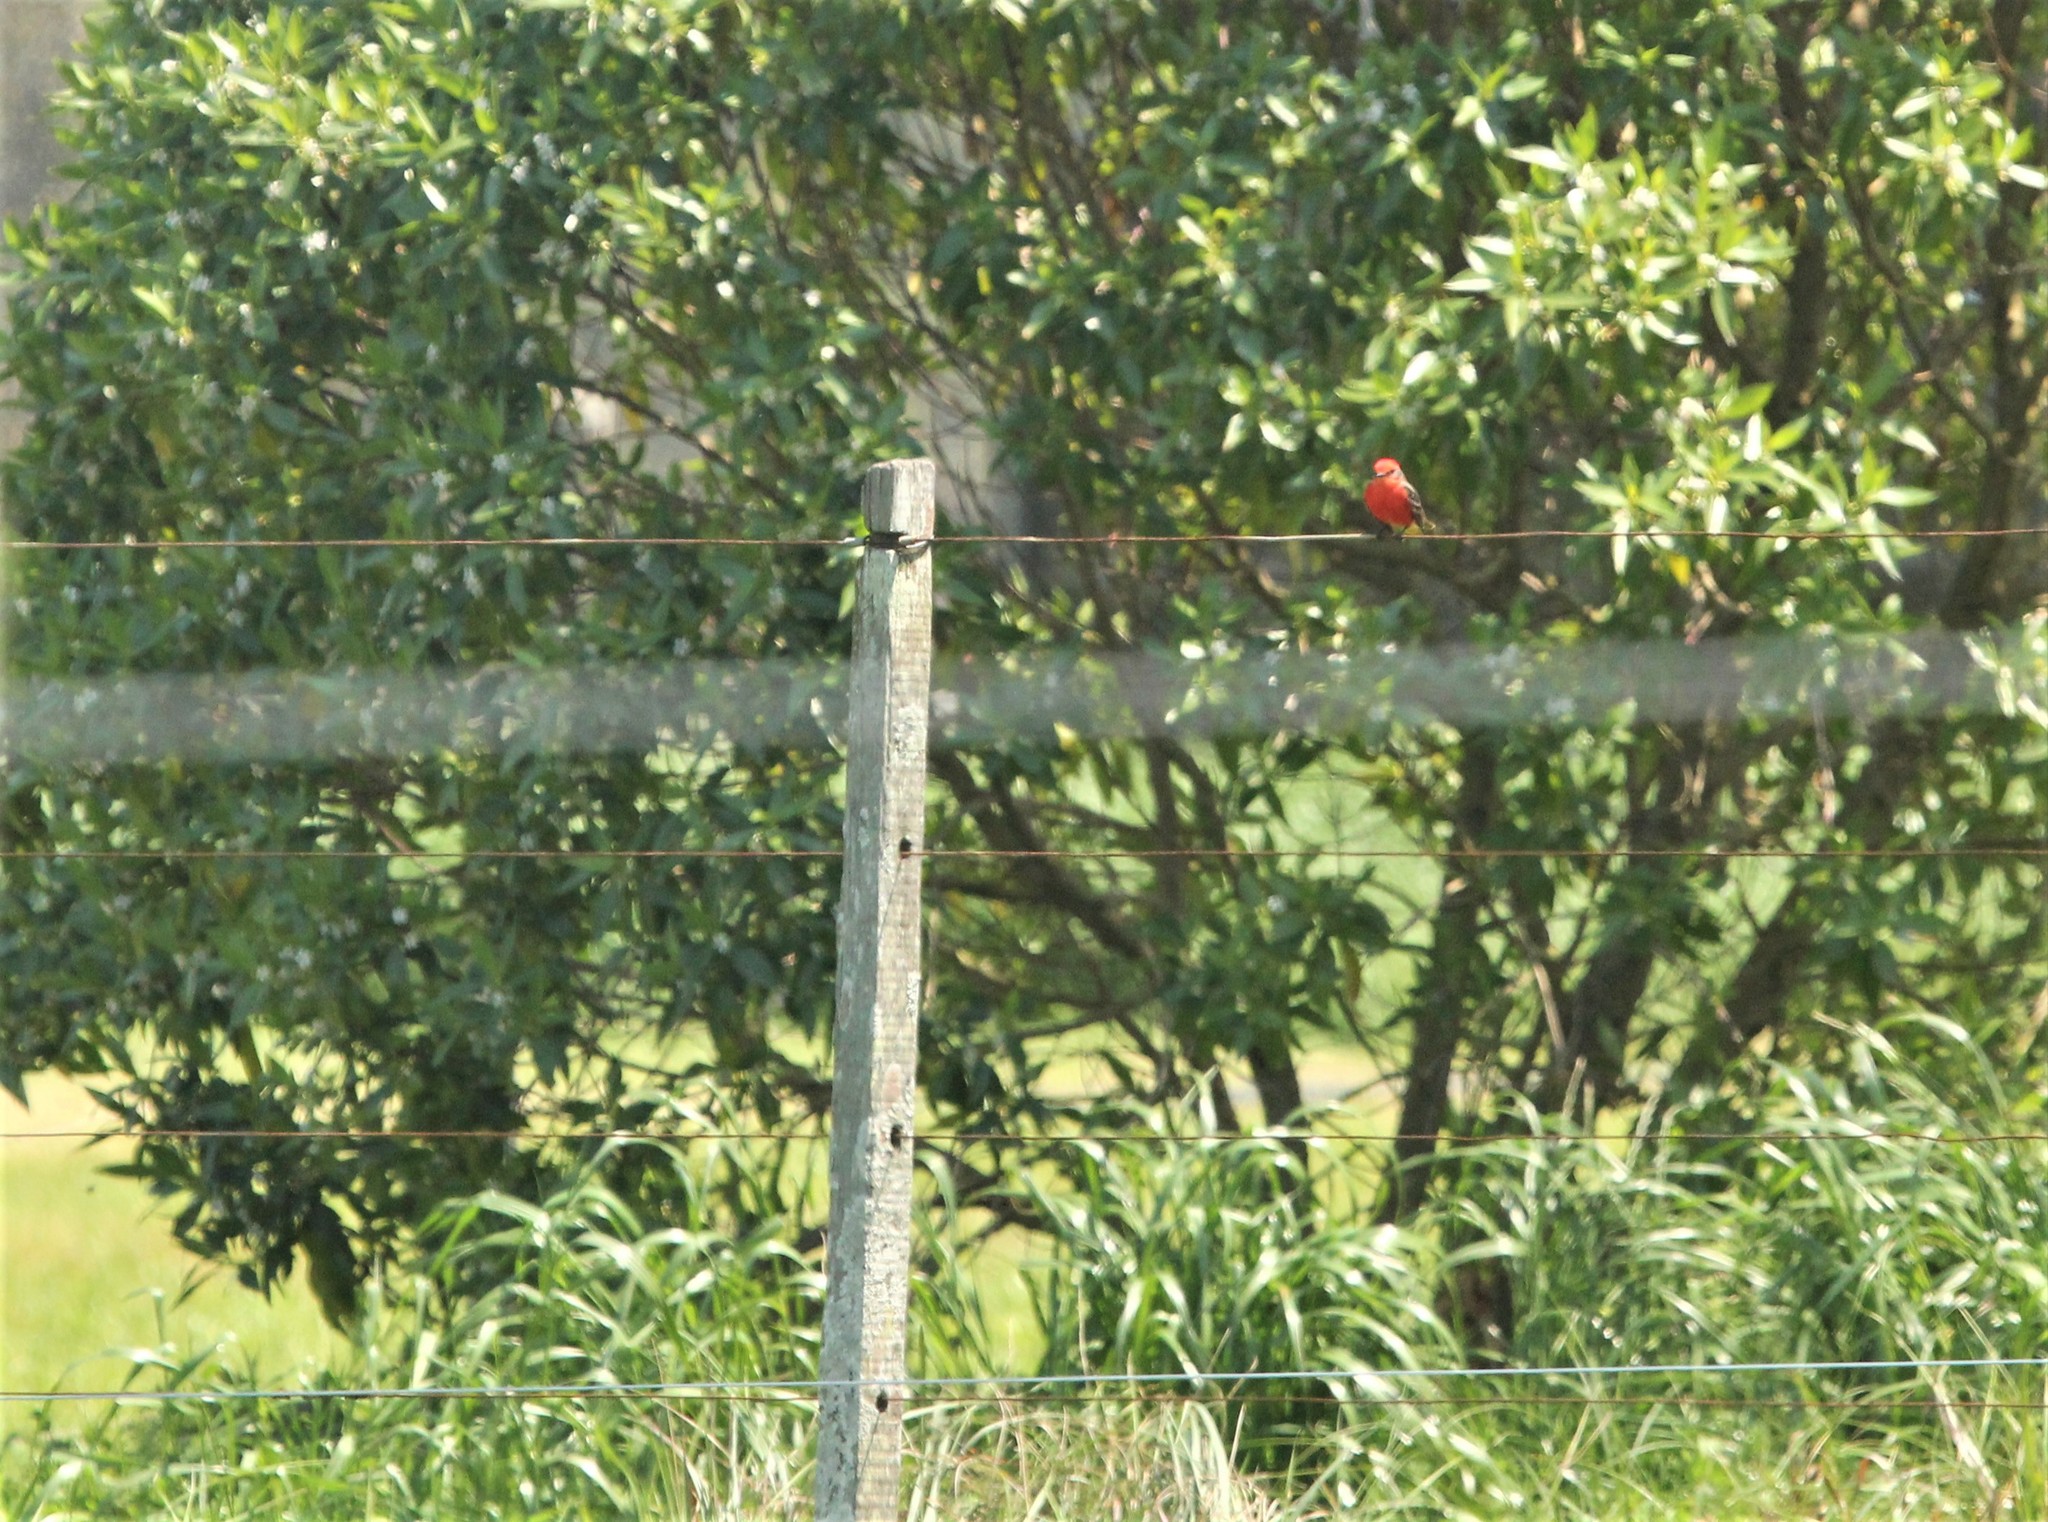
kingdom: Animalia
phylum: Chordata
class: Aves
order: Passeriformes
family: Tyrannidae
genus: Pyrocephalus
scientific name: Pyrocephalus rubinus
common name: Vermilion flycatcher
